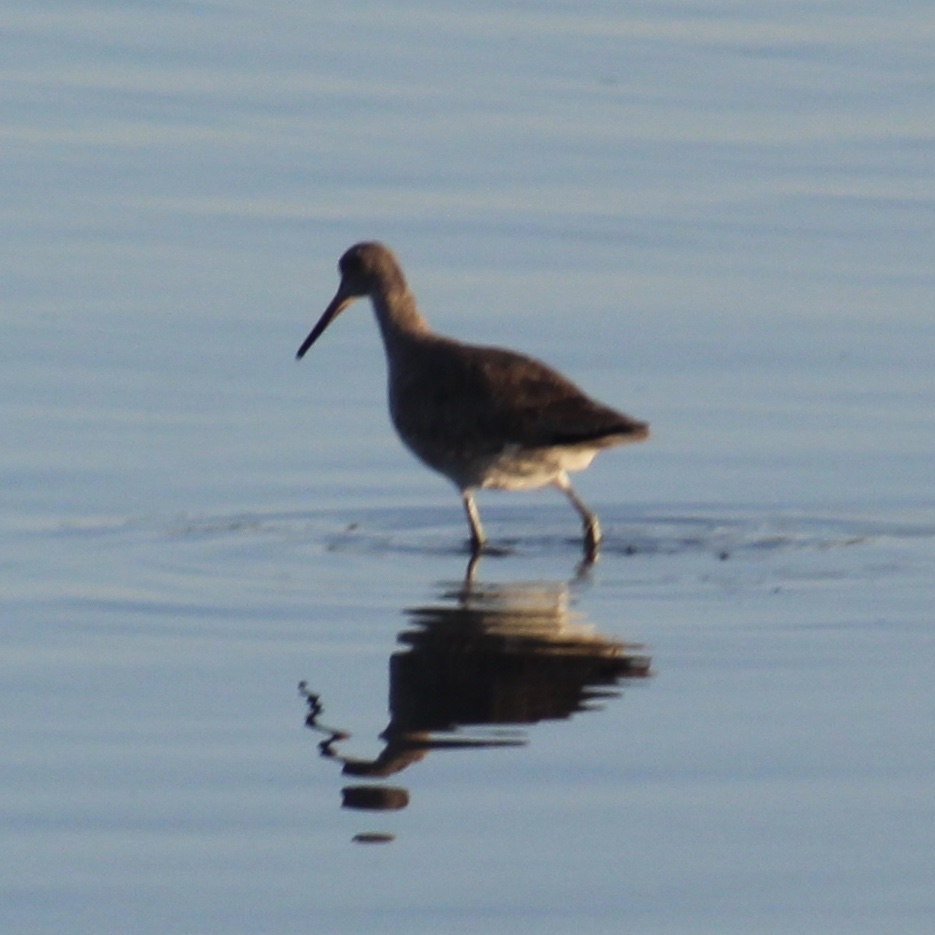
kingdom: Animalia
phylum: Chordata
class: Aves
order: Charadriiformes
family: Scolopacidae
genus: Tringa
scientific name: Tringa semipalmata
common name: Willet
